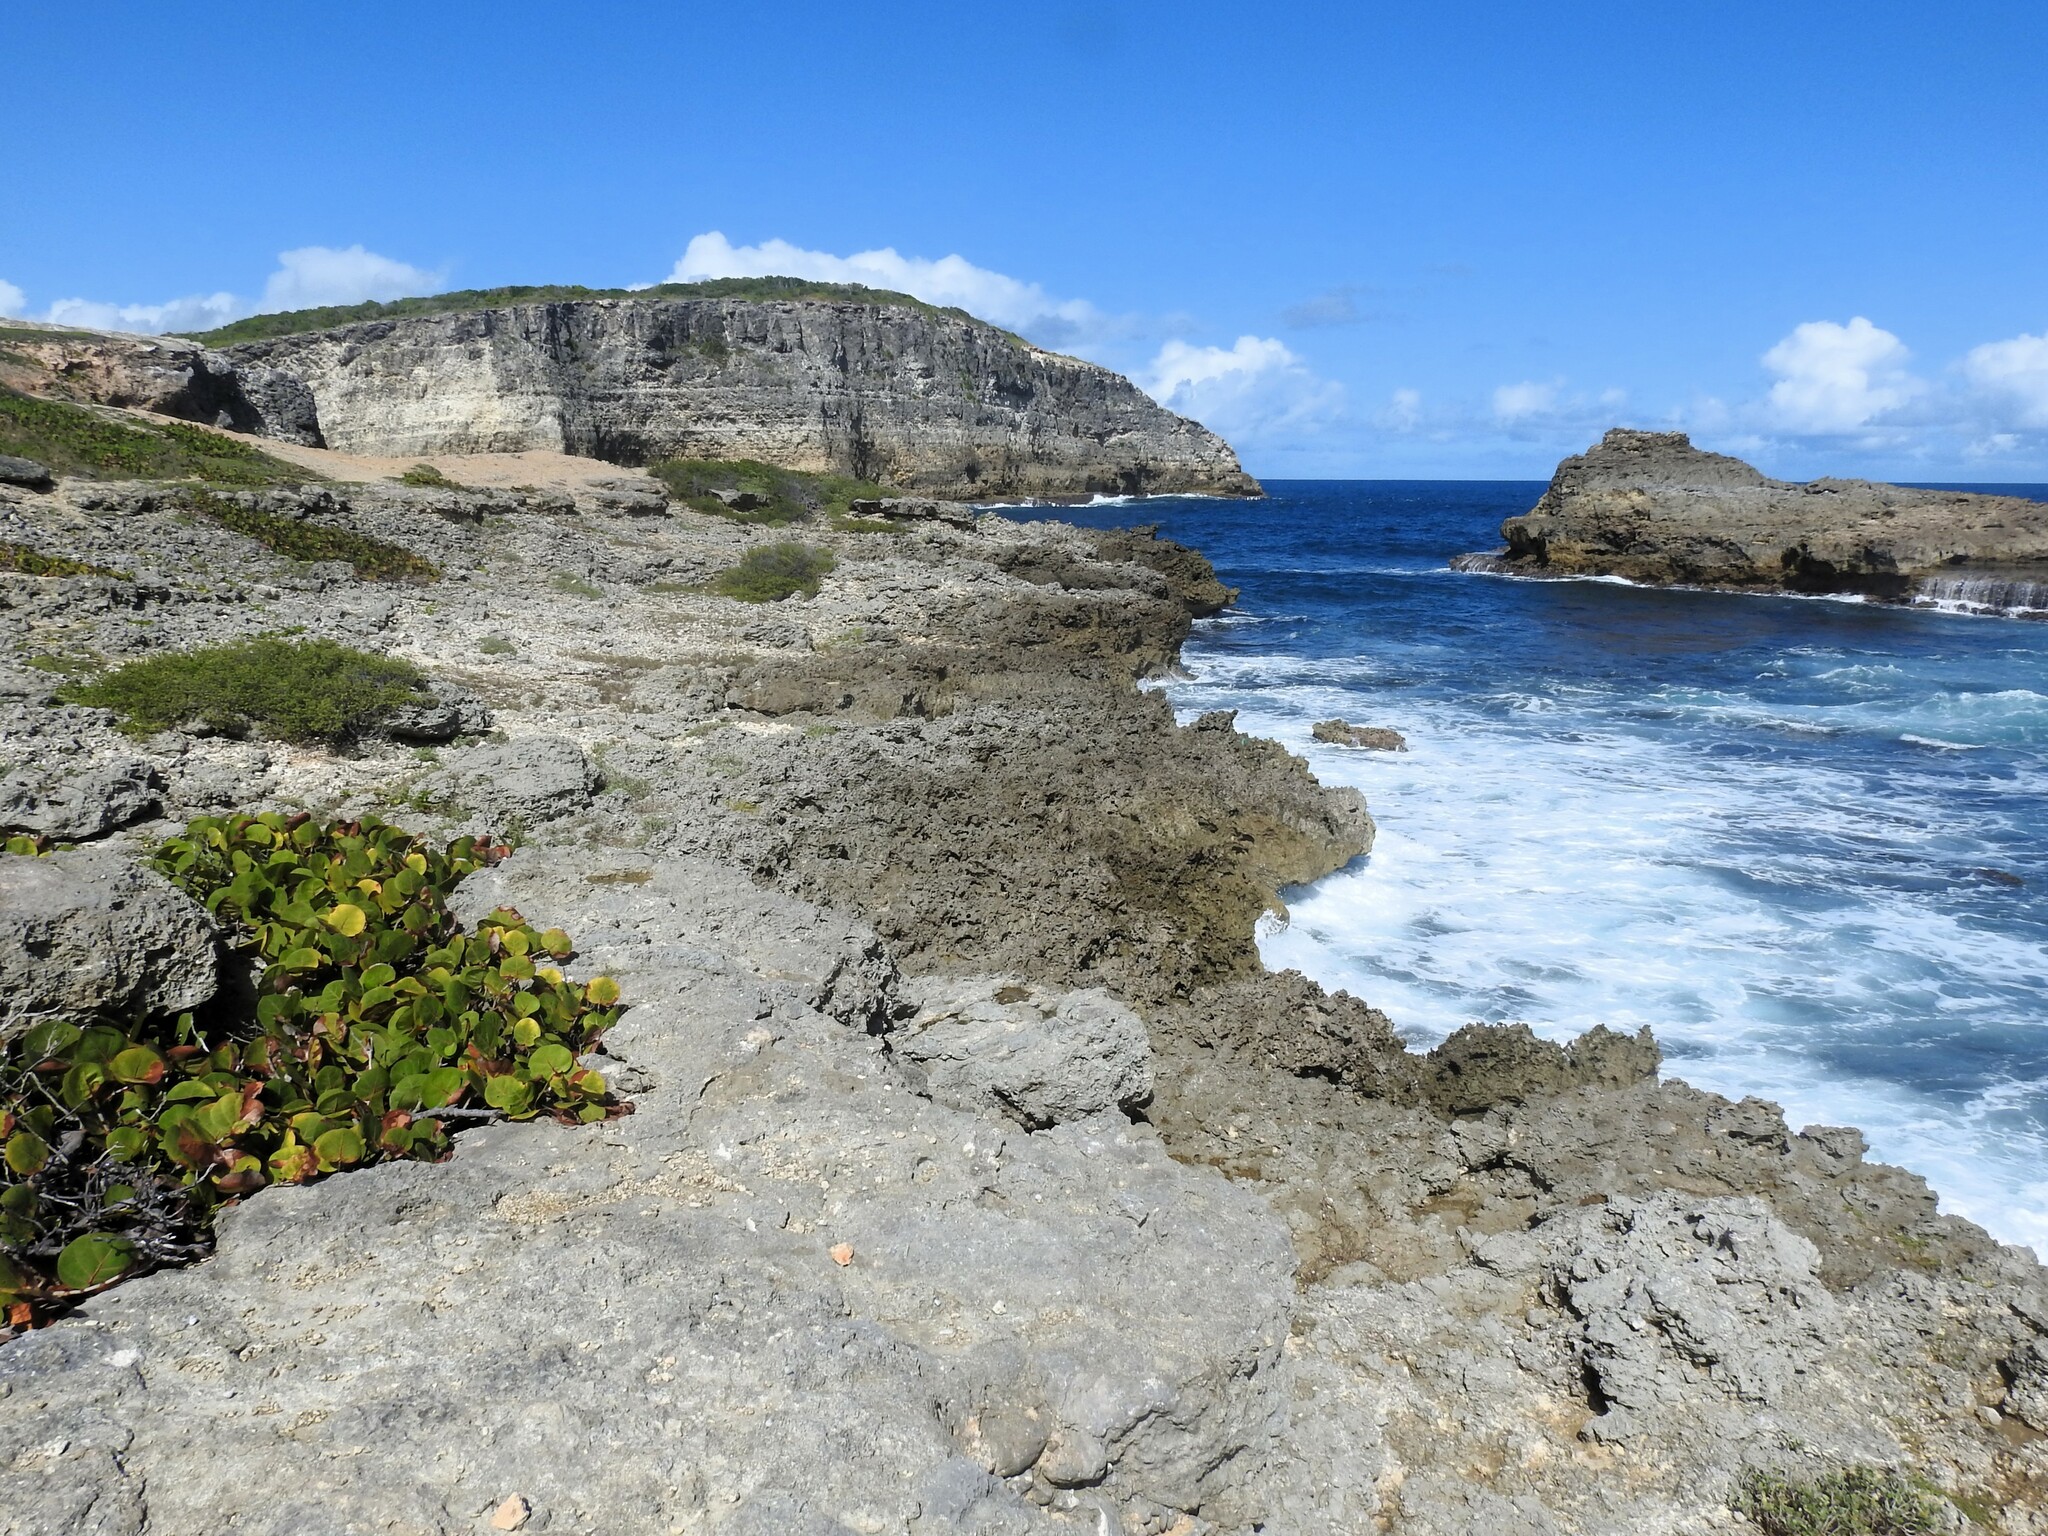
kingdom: Plantae
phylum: Tracheophyta
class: Magnoliopsida
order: Caryophyllales
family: Polygonaceae
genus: Coccoloba
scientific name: Coccoloba uvifera
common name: Seagrape
